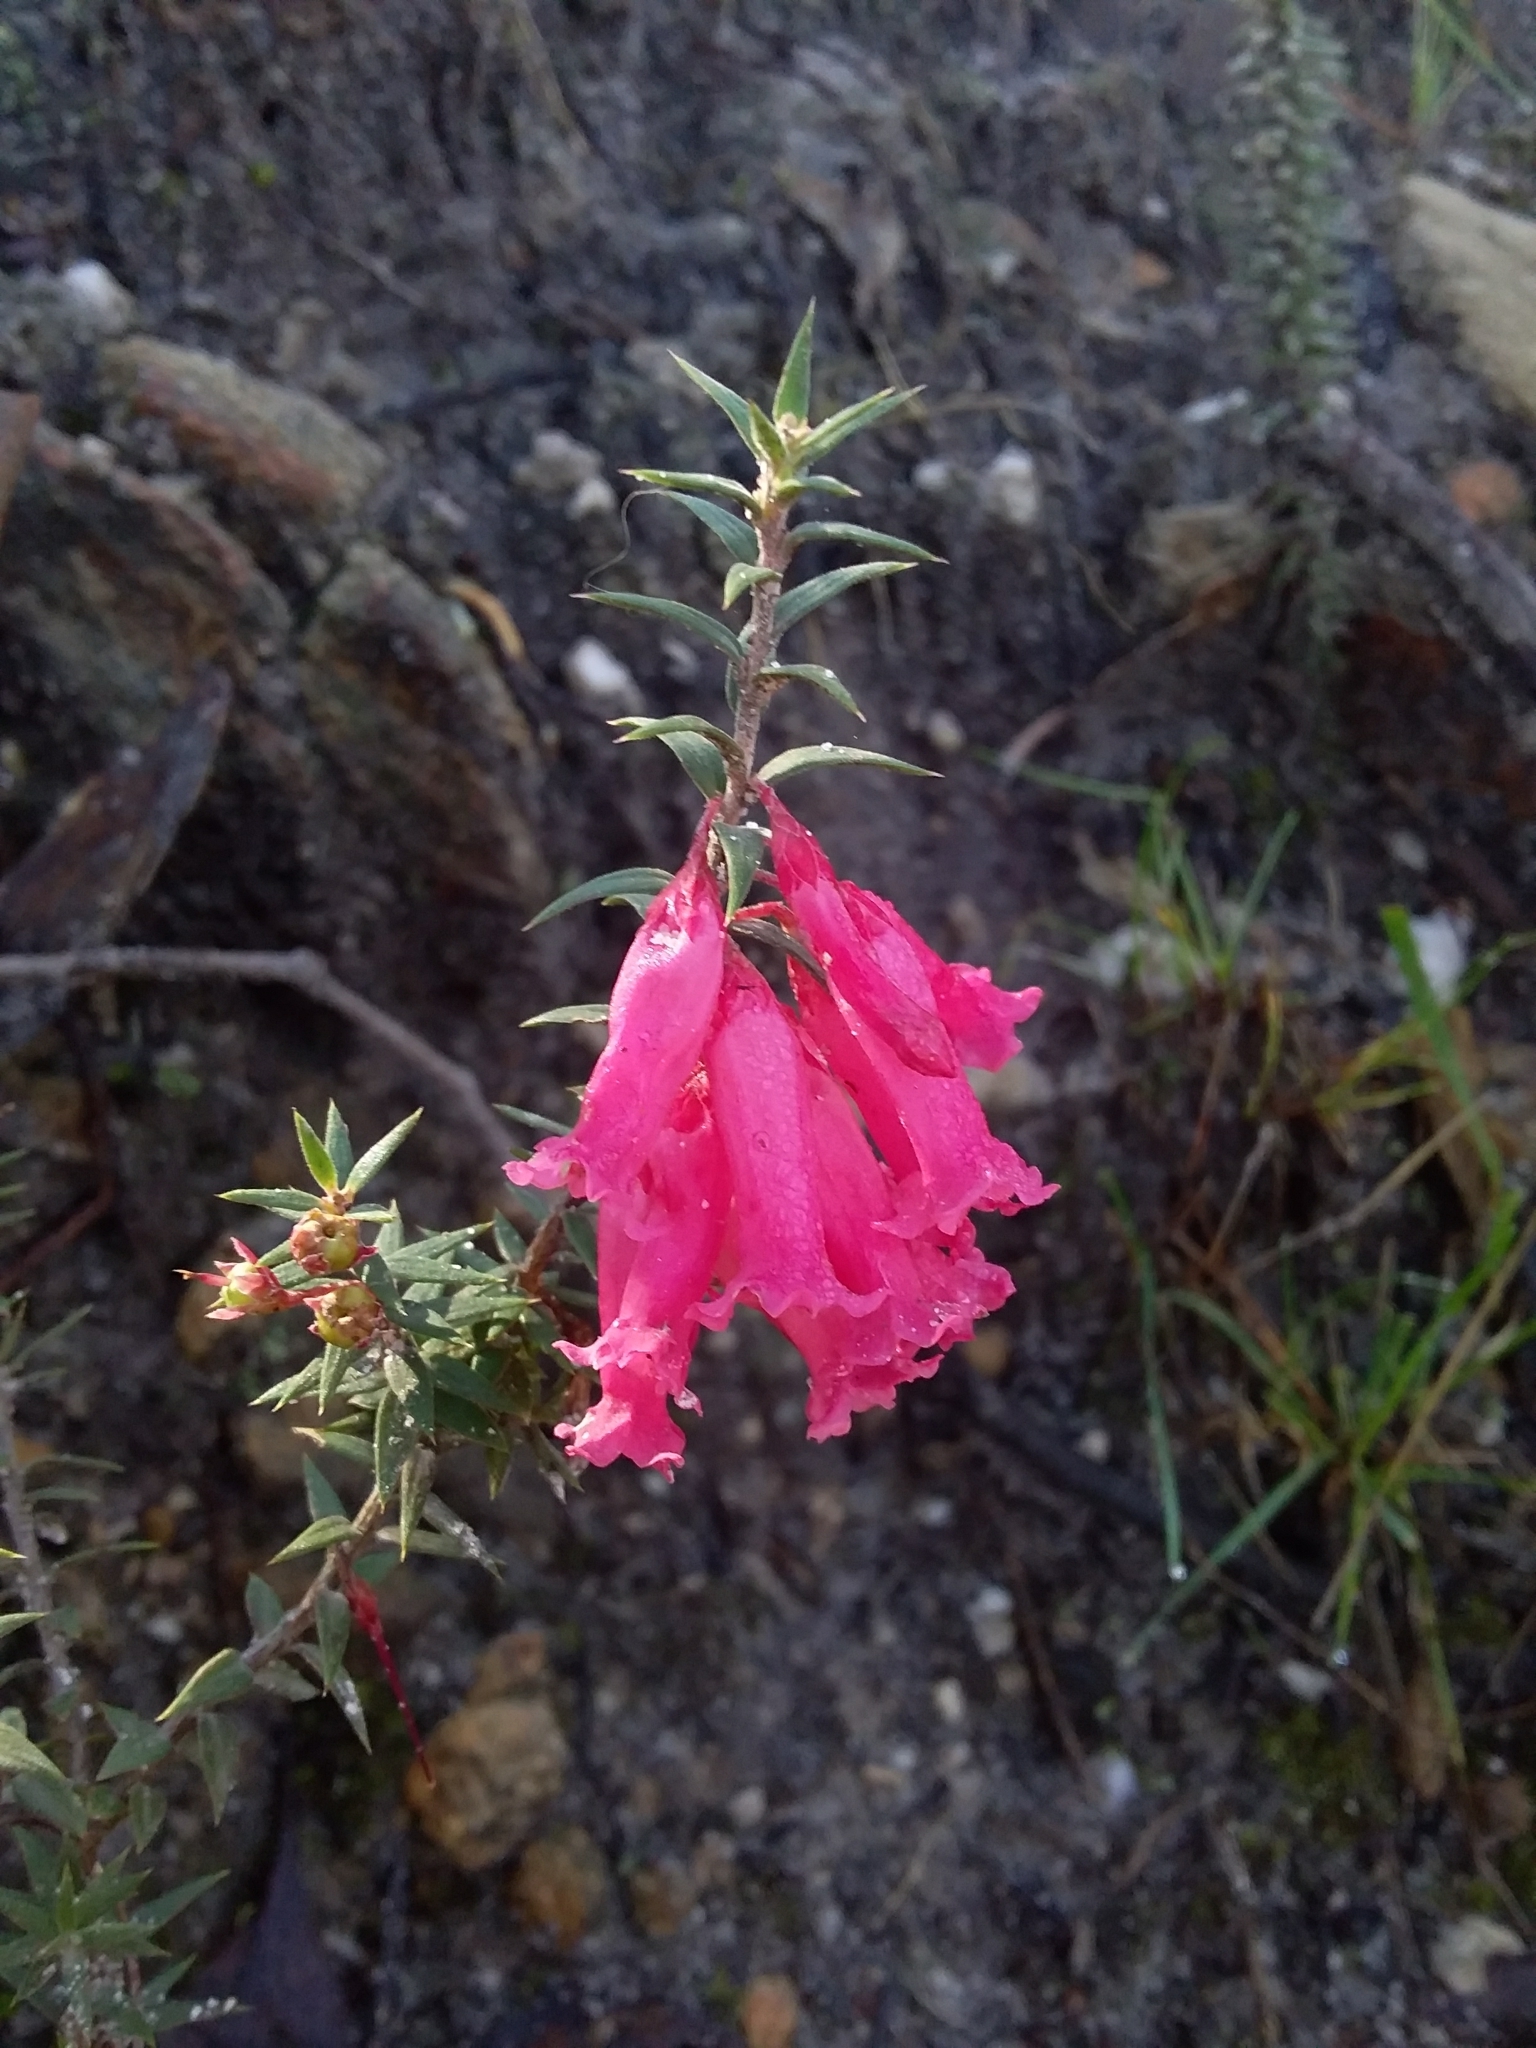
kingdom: Plantae
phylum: Tracheophyta
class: Magnoliopsida
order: Ericales
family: Ericaceae
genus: Epacris
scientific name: Epacris impressa
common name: Common-heath
